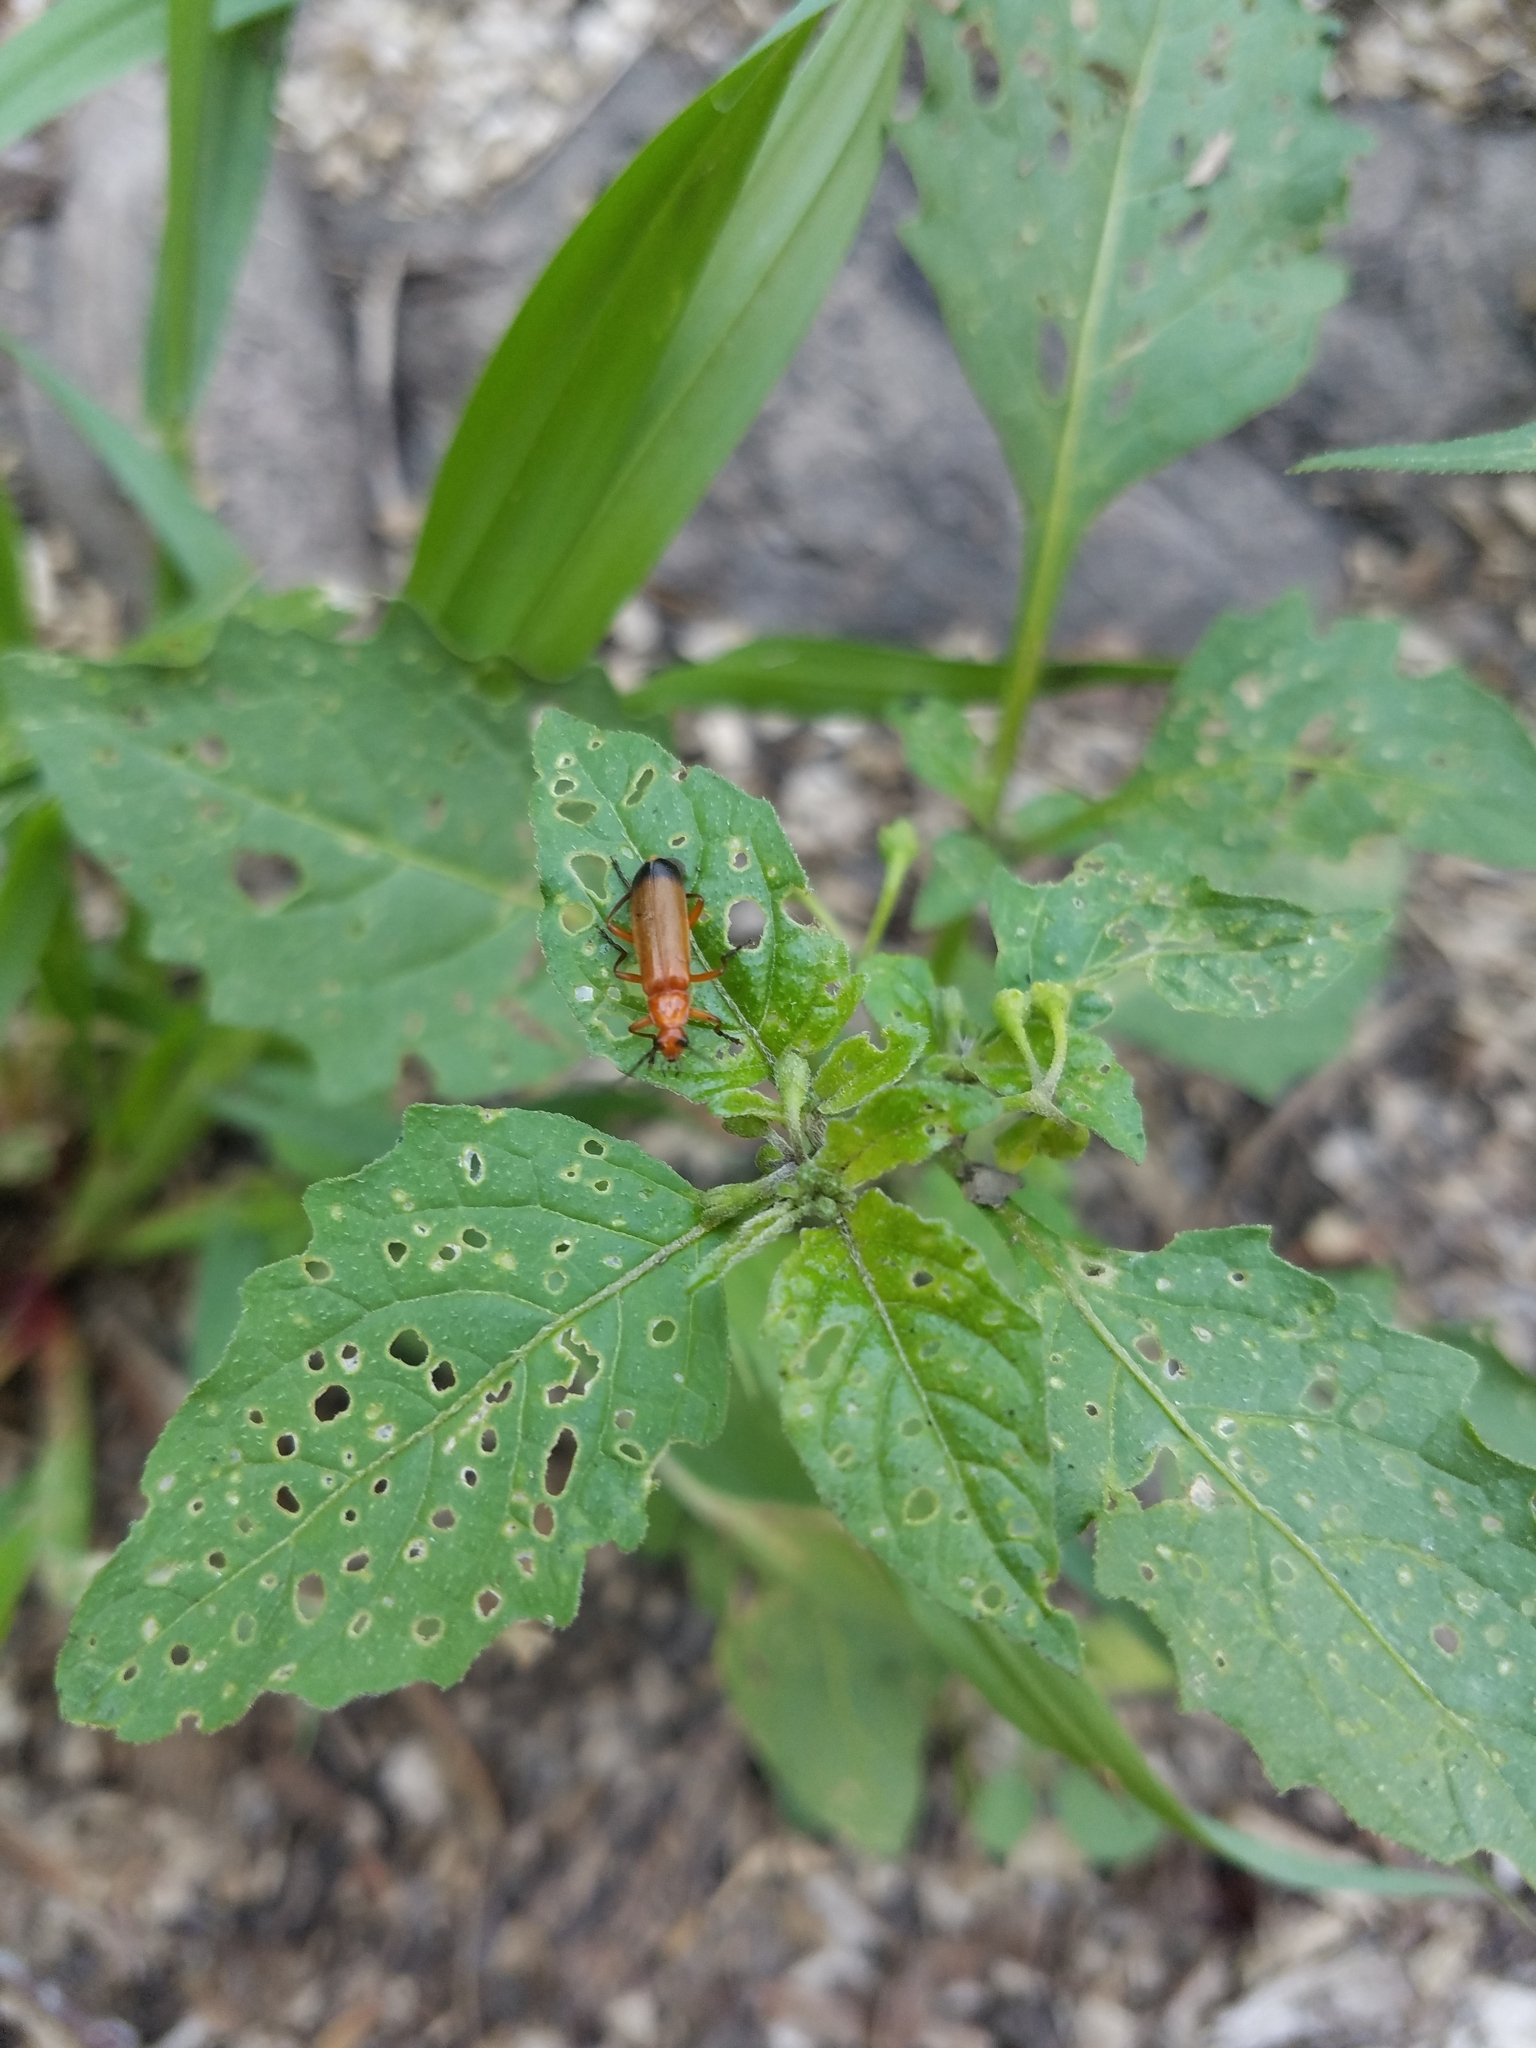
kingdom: Animalia
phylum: Arthropoda
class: Insecta
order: Coleoptera
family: Cantharidae
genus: Rhagonycha
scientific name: Rhagonycha fulva
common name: Common red soldier beetle
